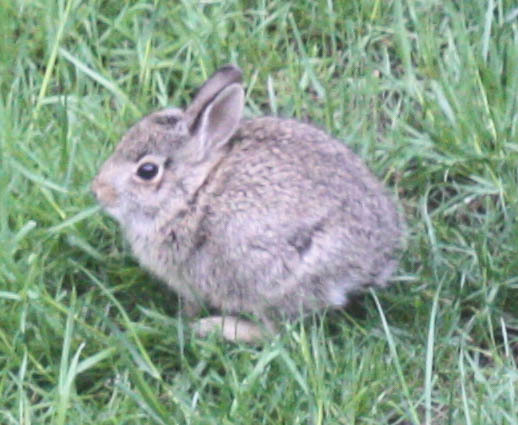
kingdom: Animalia
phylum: Chordata
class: Mammalia
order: Lagomorpha
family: Leporidae
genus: Sylvilagus
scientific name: Sylvilagus floridanus
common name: Eastern cottontail
